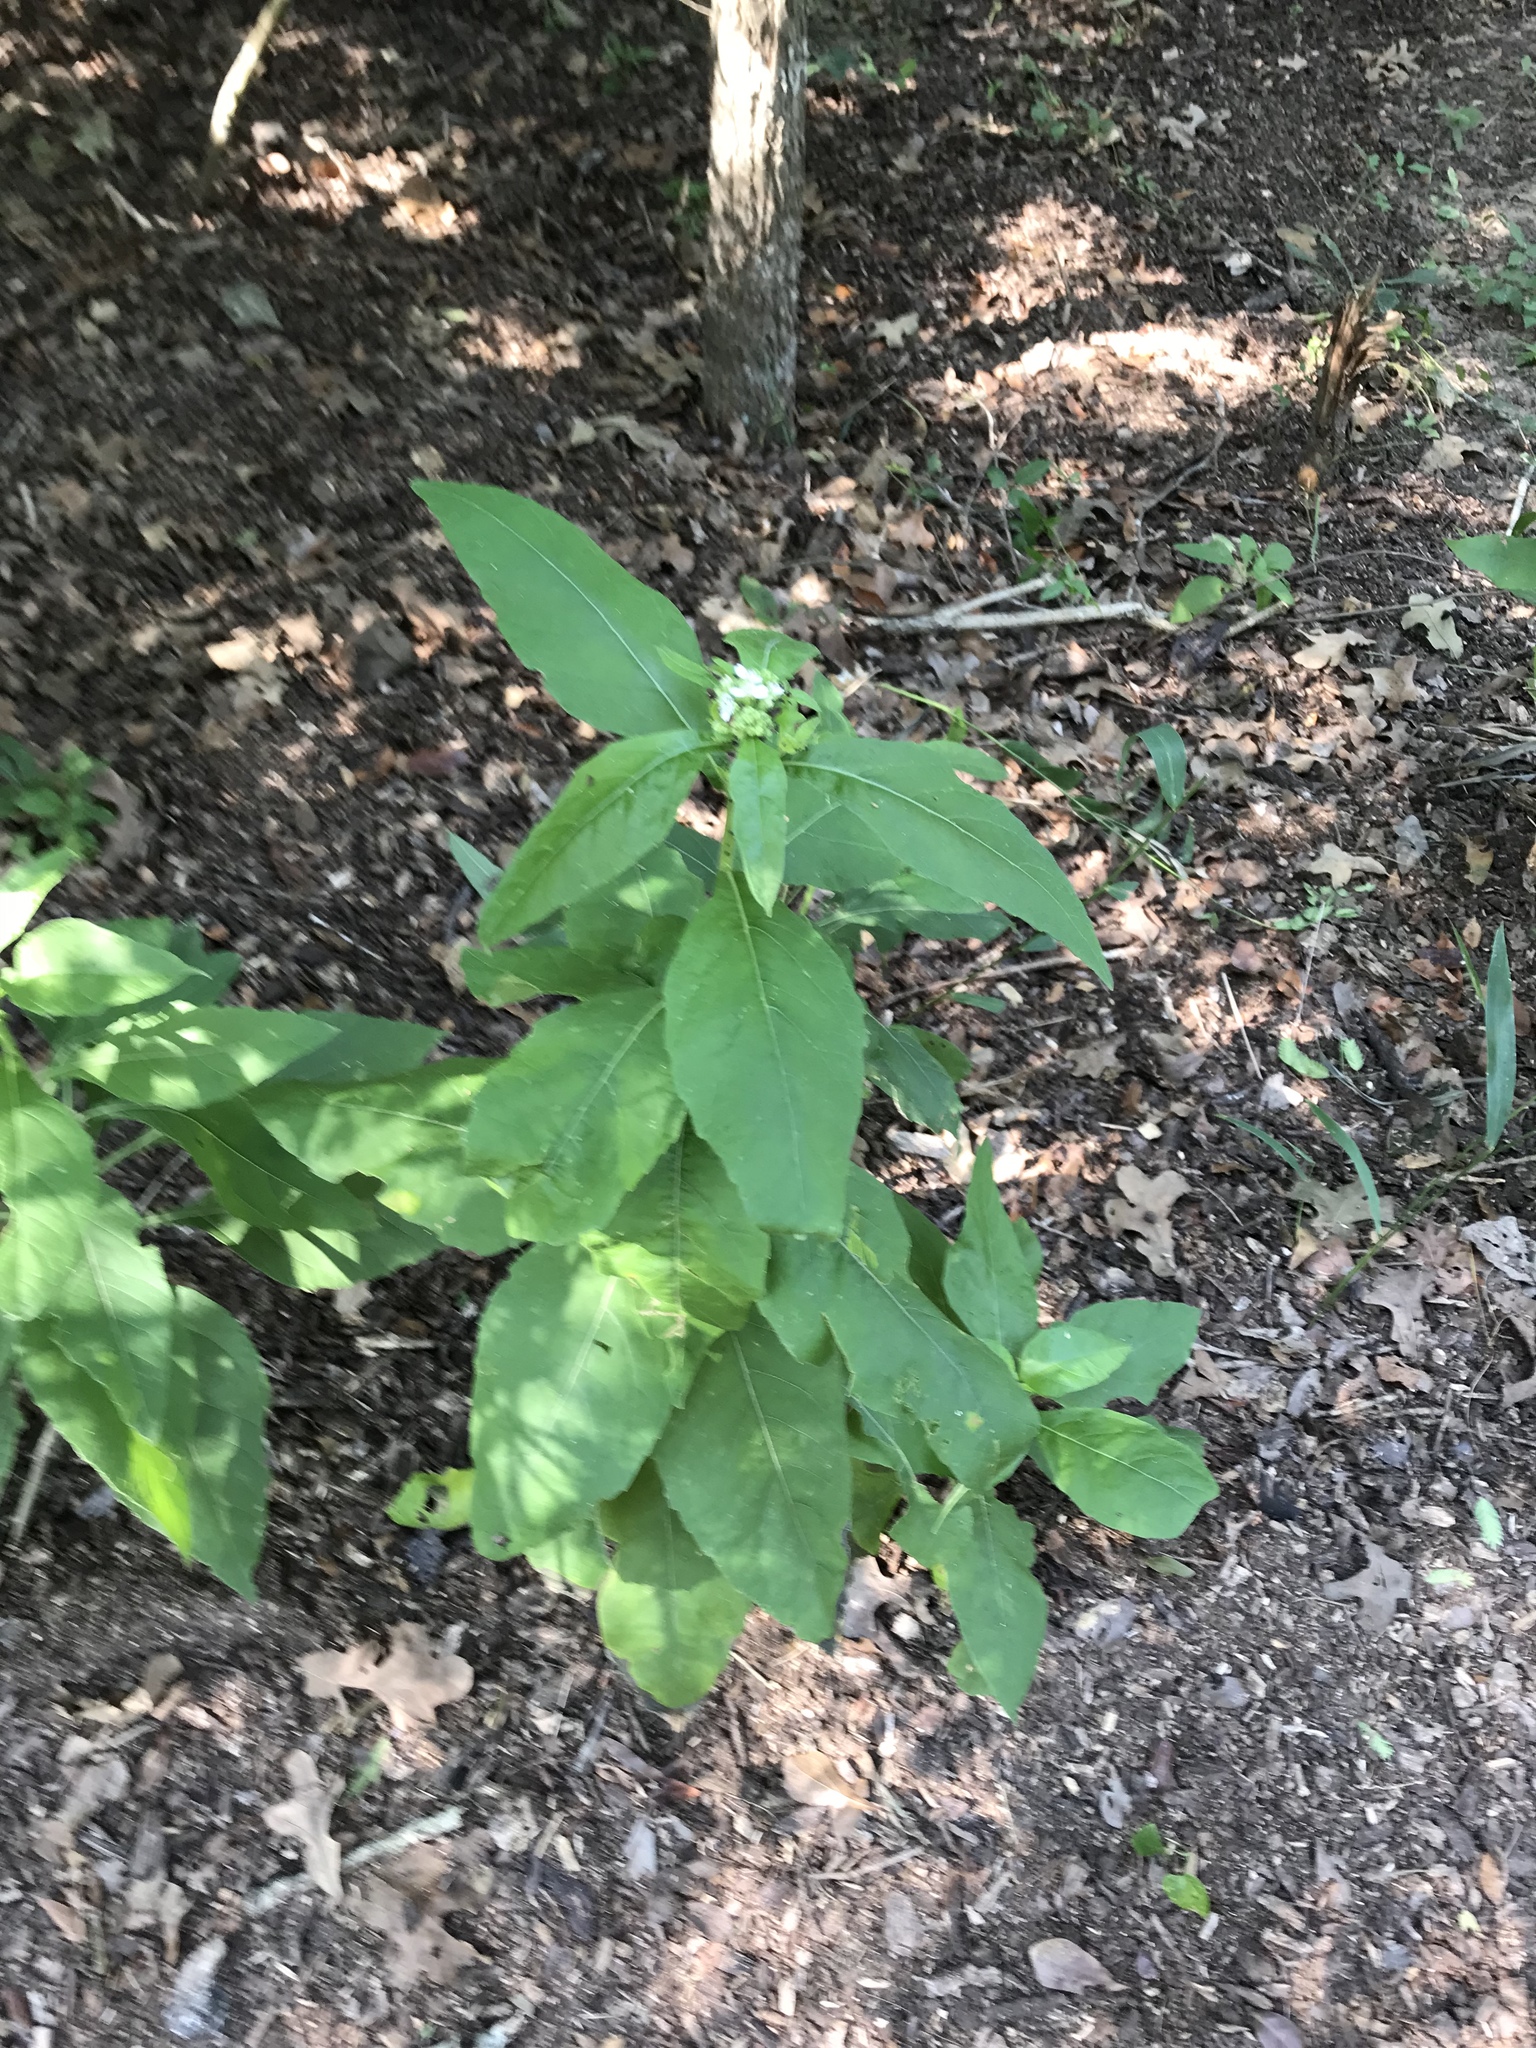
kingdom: Plantae
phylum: Tracheophyta
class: Magnoliopsida
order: Asterales
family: Asteraceae
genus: Verbesina
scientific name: Verbesina virginica
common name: Frostweed
